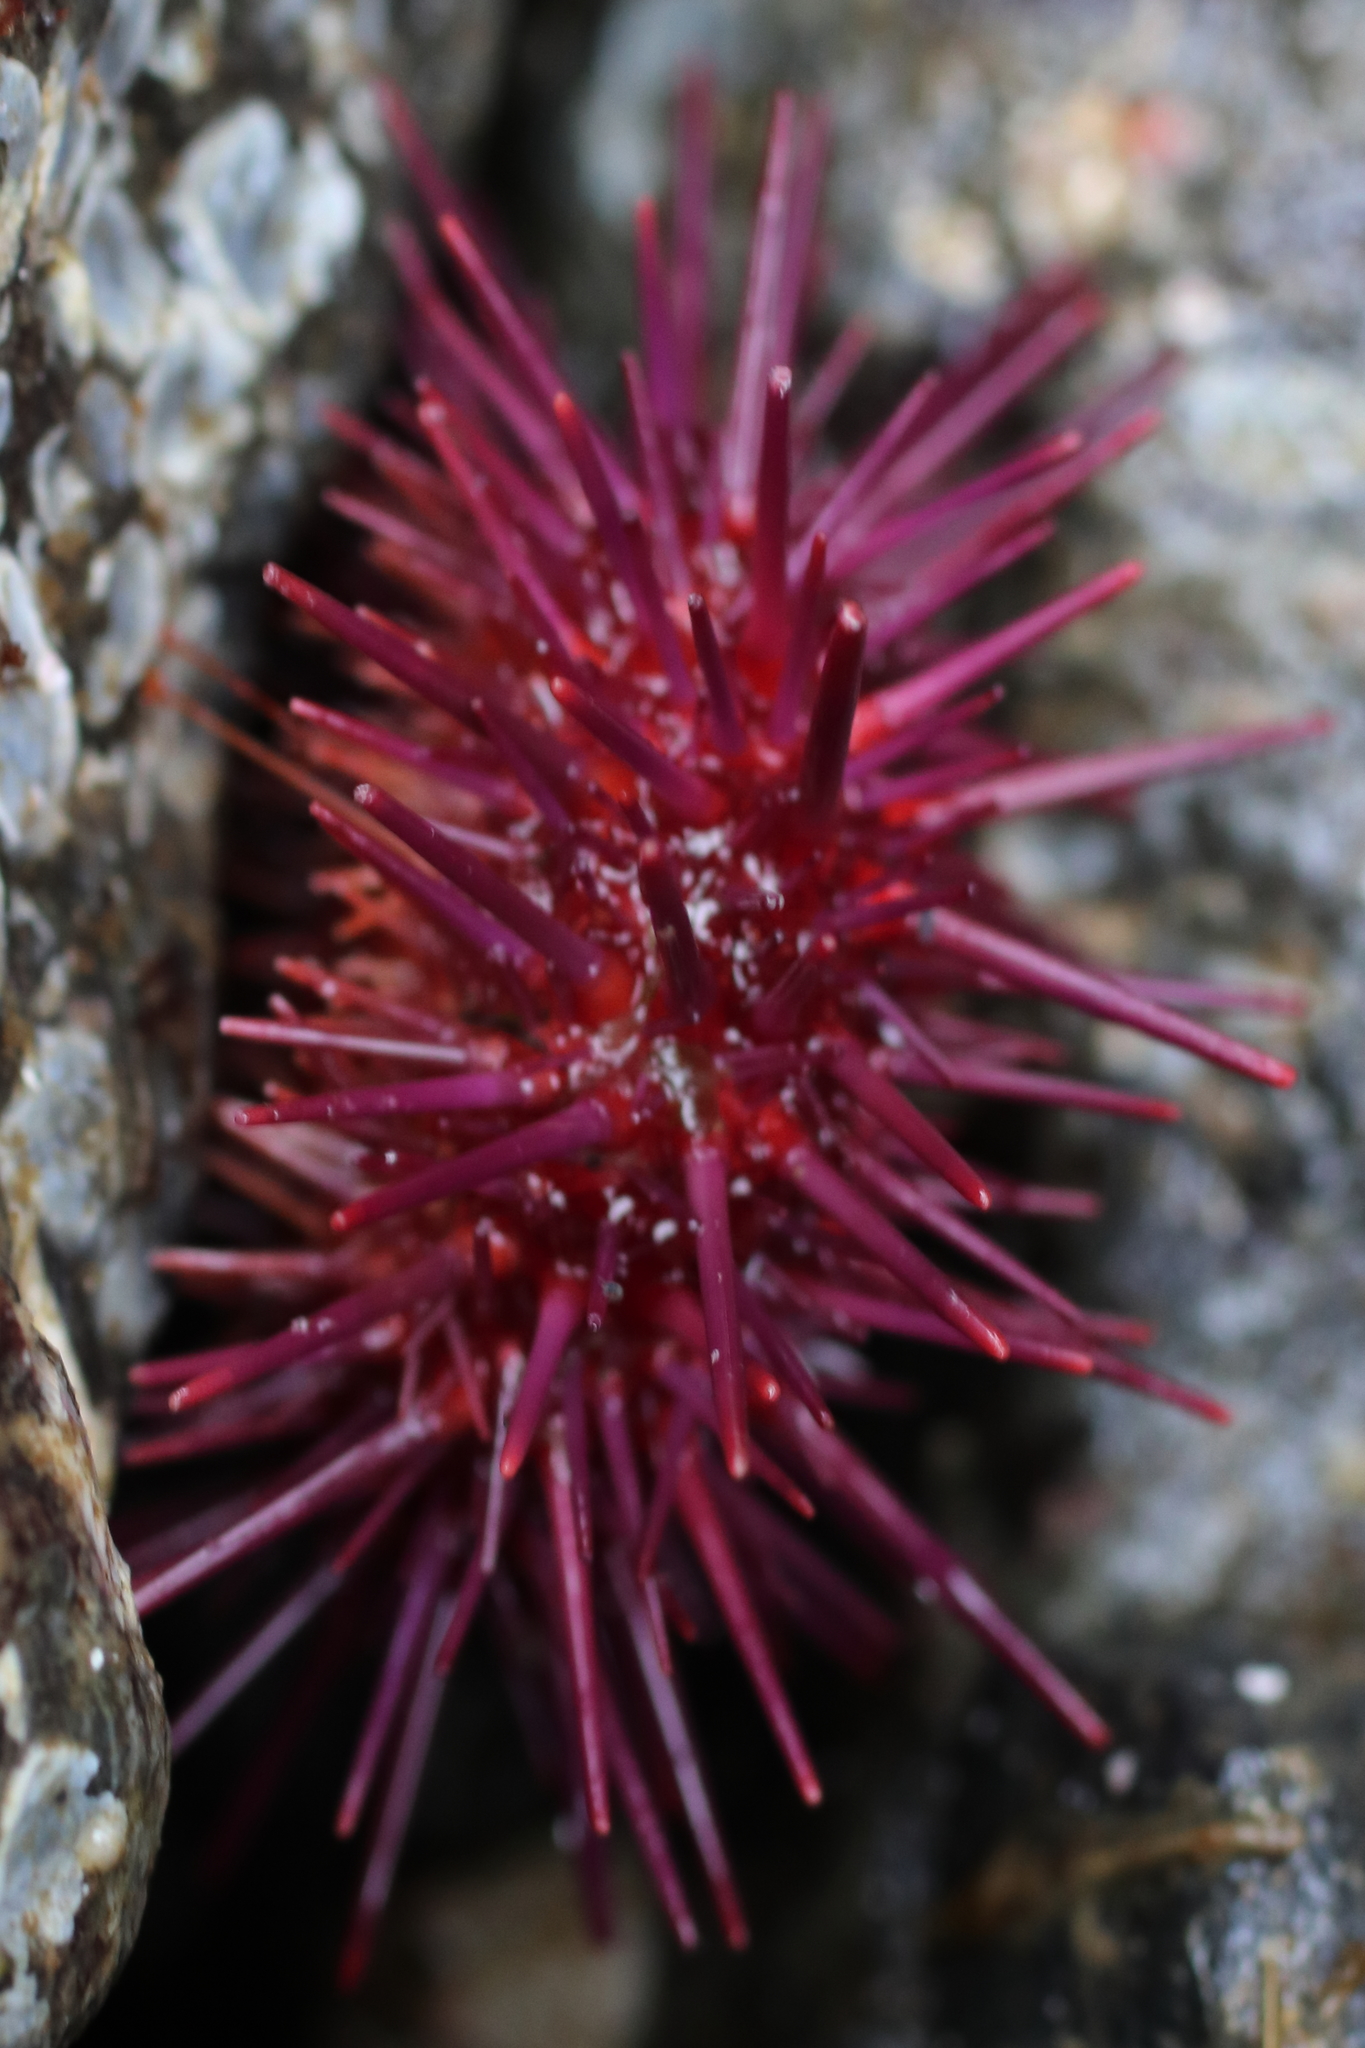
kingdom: Animalia
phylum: Echinodermata
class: Echinoidea
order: Camarodonta
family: Strongylocentrotidae
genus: Mesocentrotus
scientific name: Mesocentrotus franciscanus
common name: Red sea urchin
